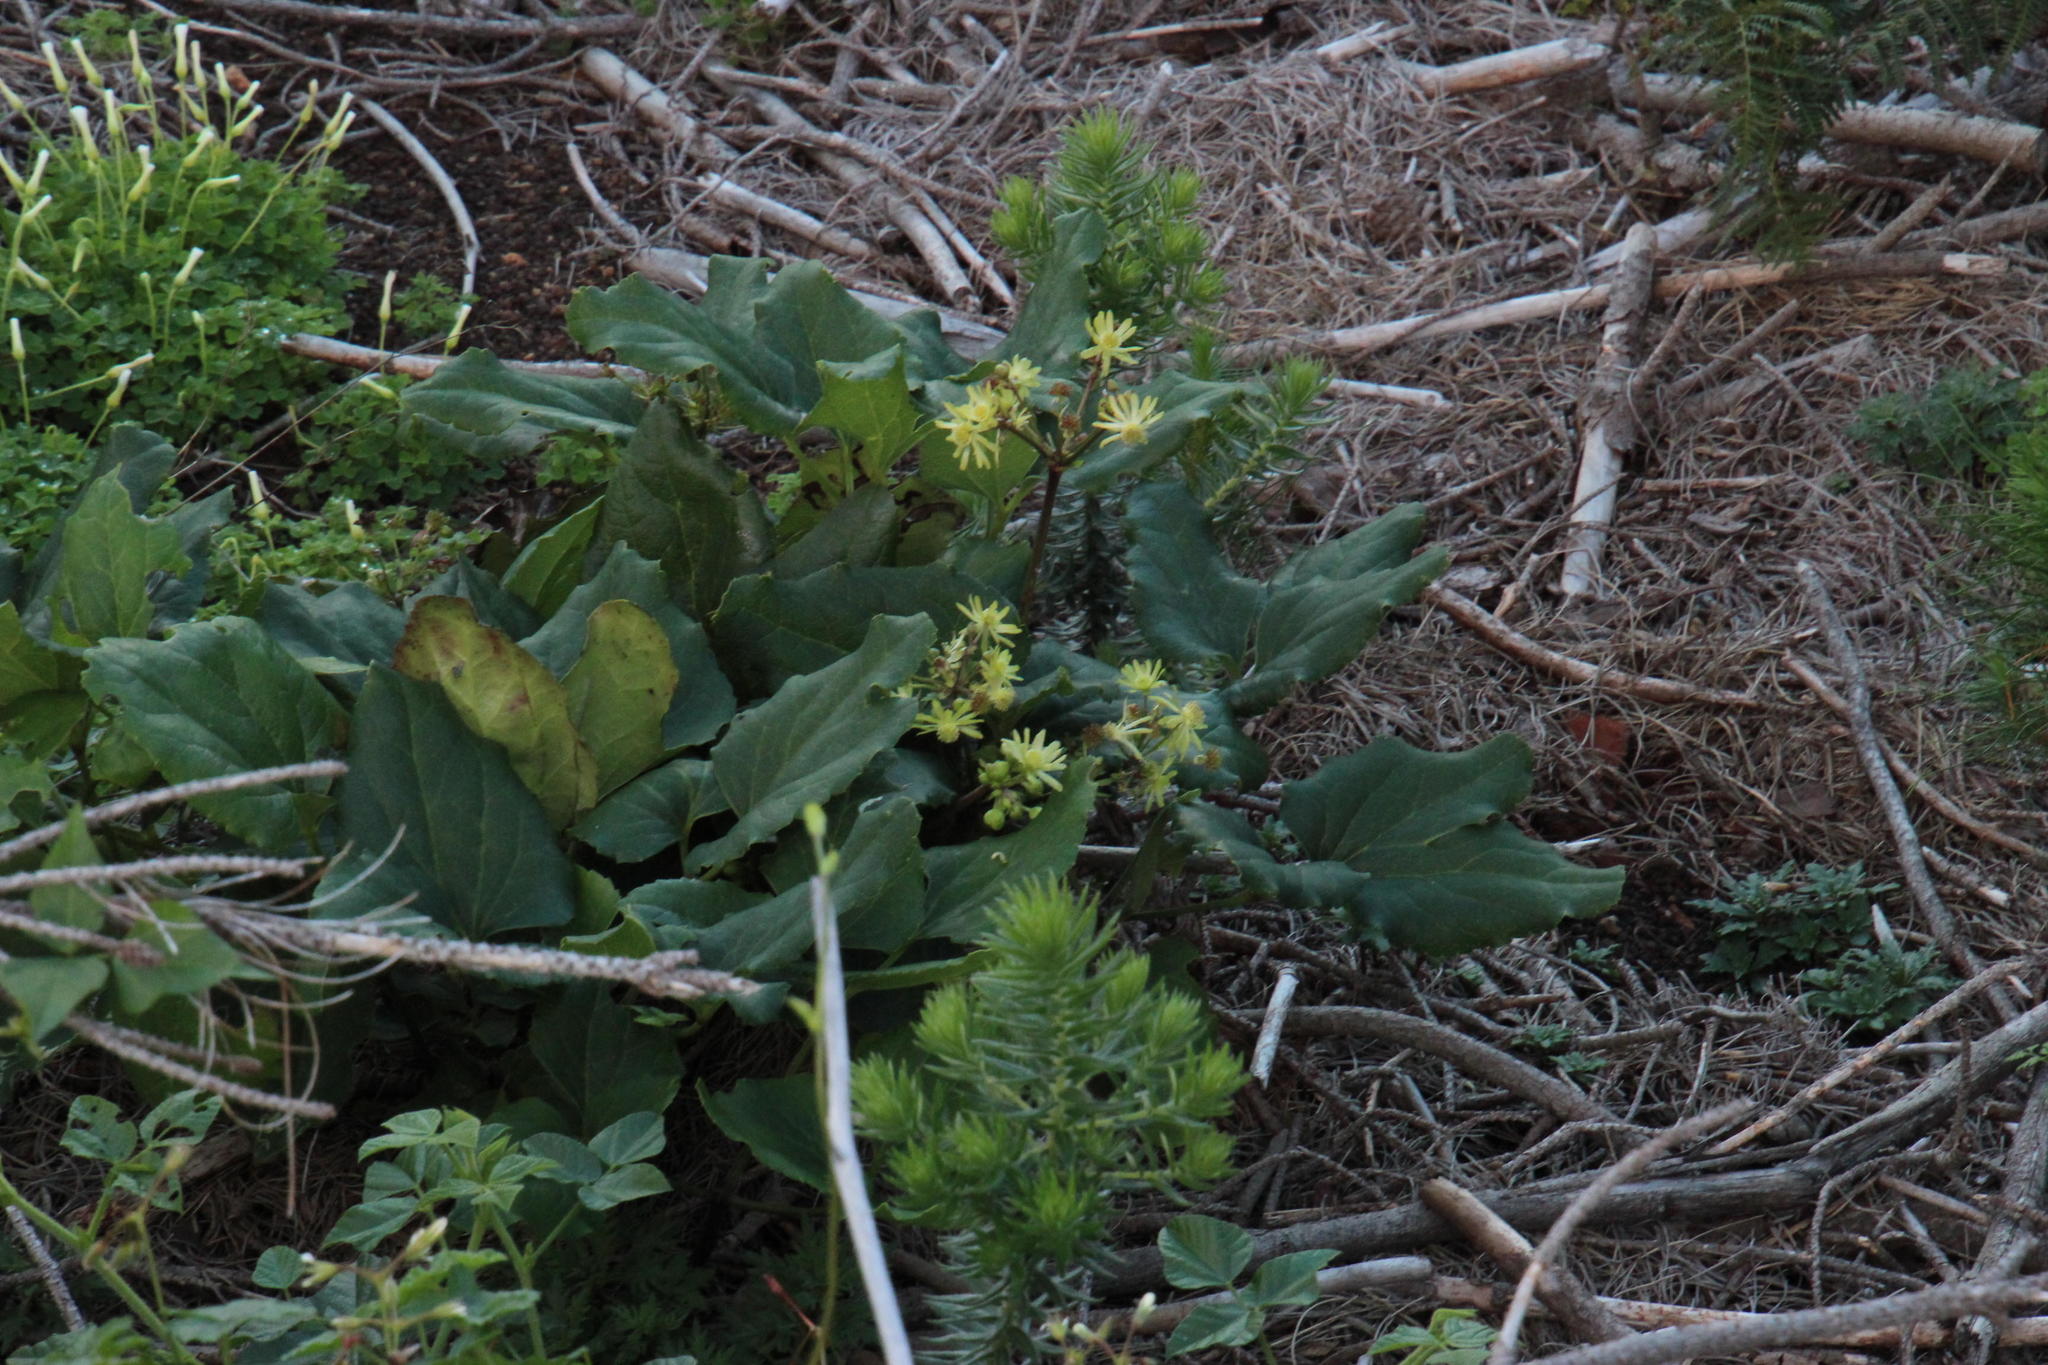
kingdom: Plantae
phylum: Tracheophyta
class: Magnoliopsida
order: Ranunculales
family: Ranunculaceae
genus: Knowltonia
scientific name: Knowltonia vesicatoria
